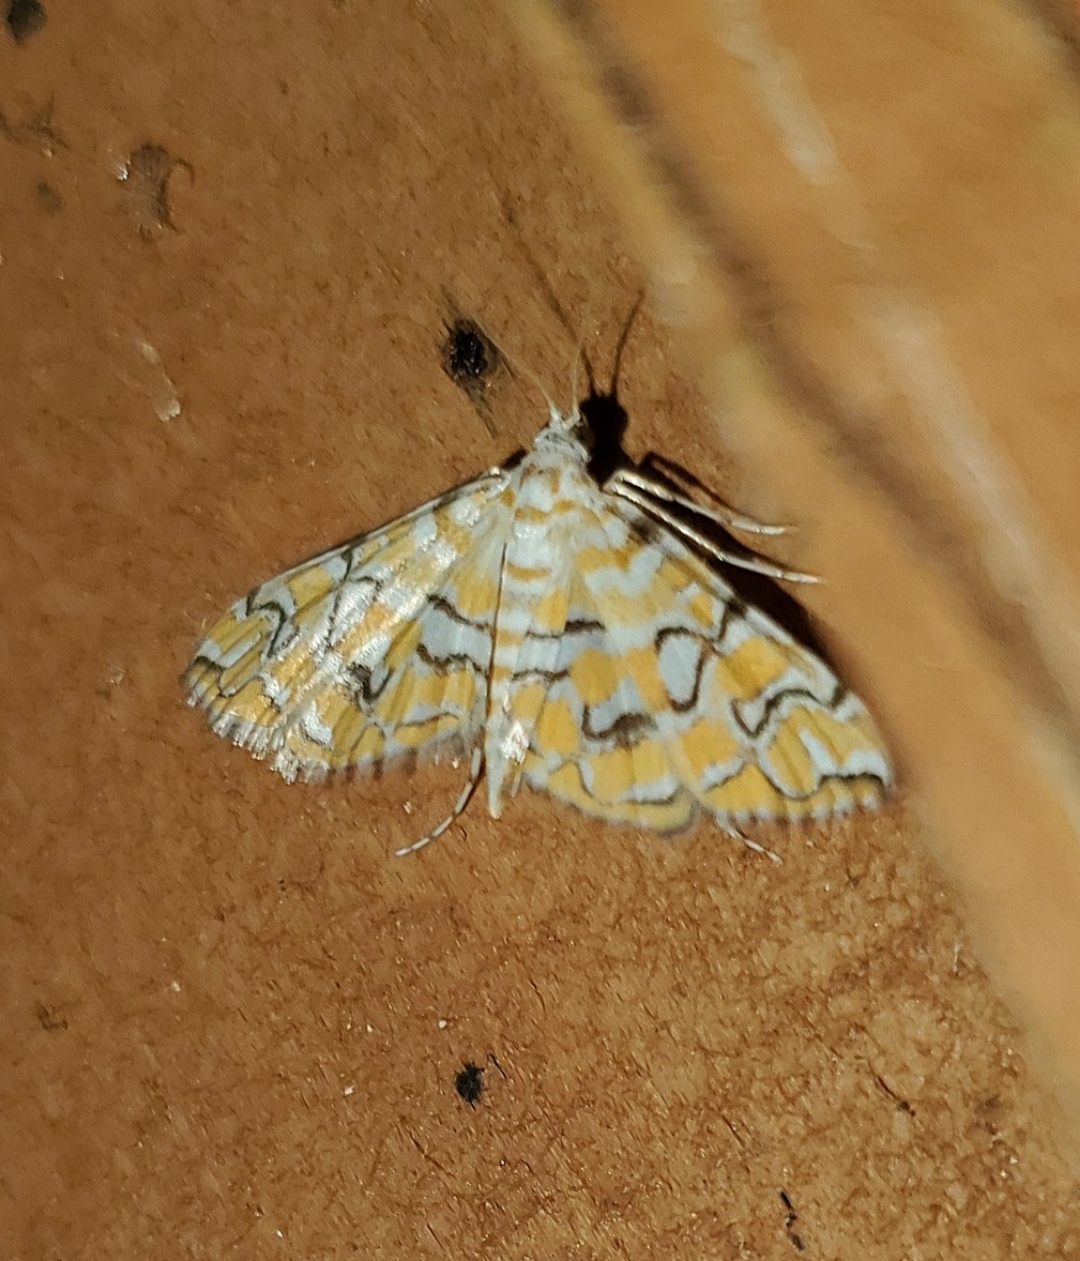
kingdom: Animalia
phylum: Arthropoda
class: Insecta
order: Lepidoptera
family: Crambidae
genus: Elophila
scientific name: Elophila icciusalis
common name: Pondside pyralid moth
